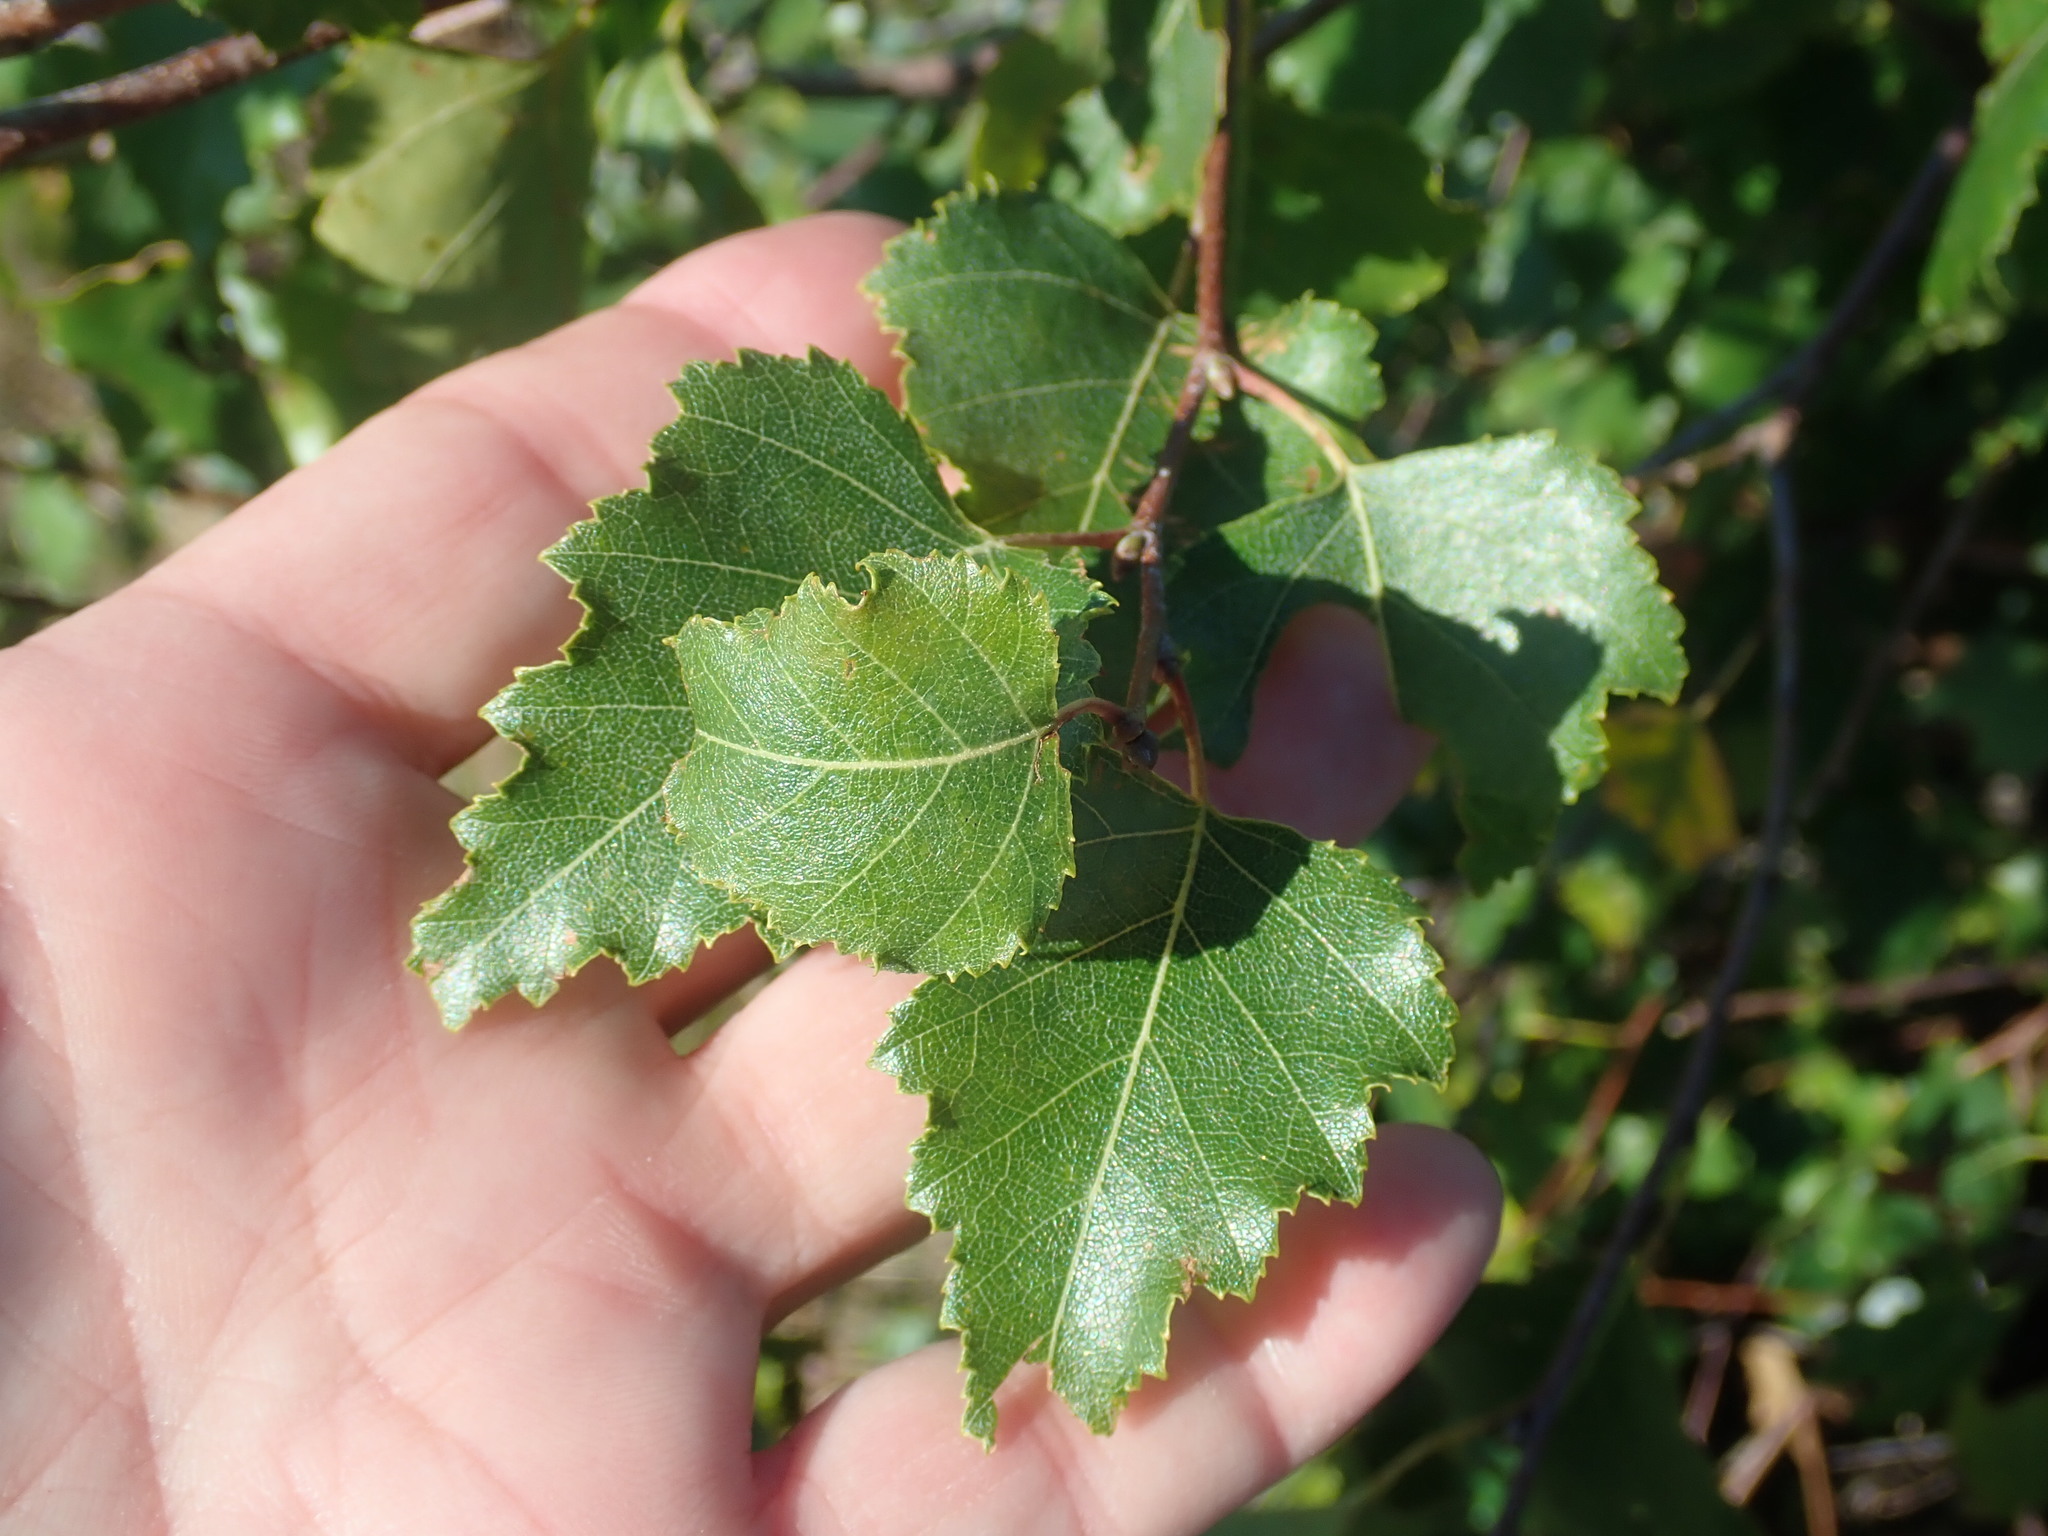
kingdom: Plantae
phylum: Tracheophyta
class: Magnoliopsida
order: Fagales
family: Betulaceae
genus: Betula
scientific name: Betula populifolia
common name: Fire birch
